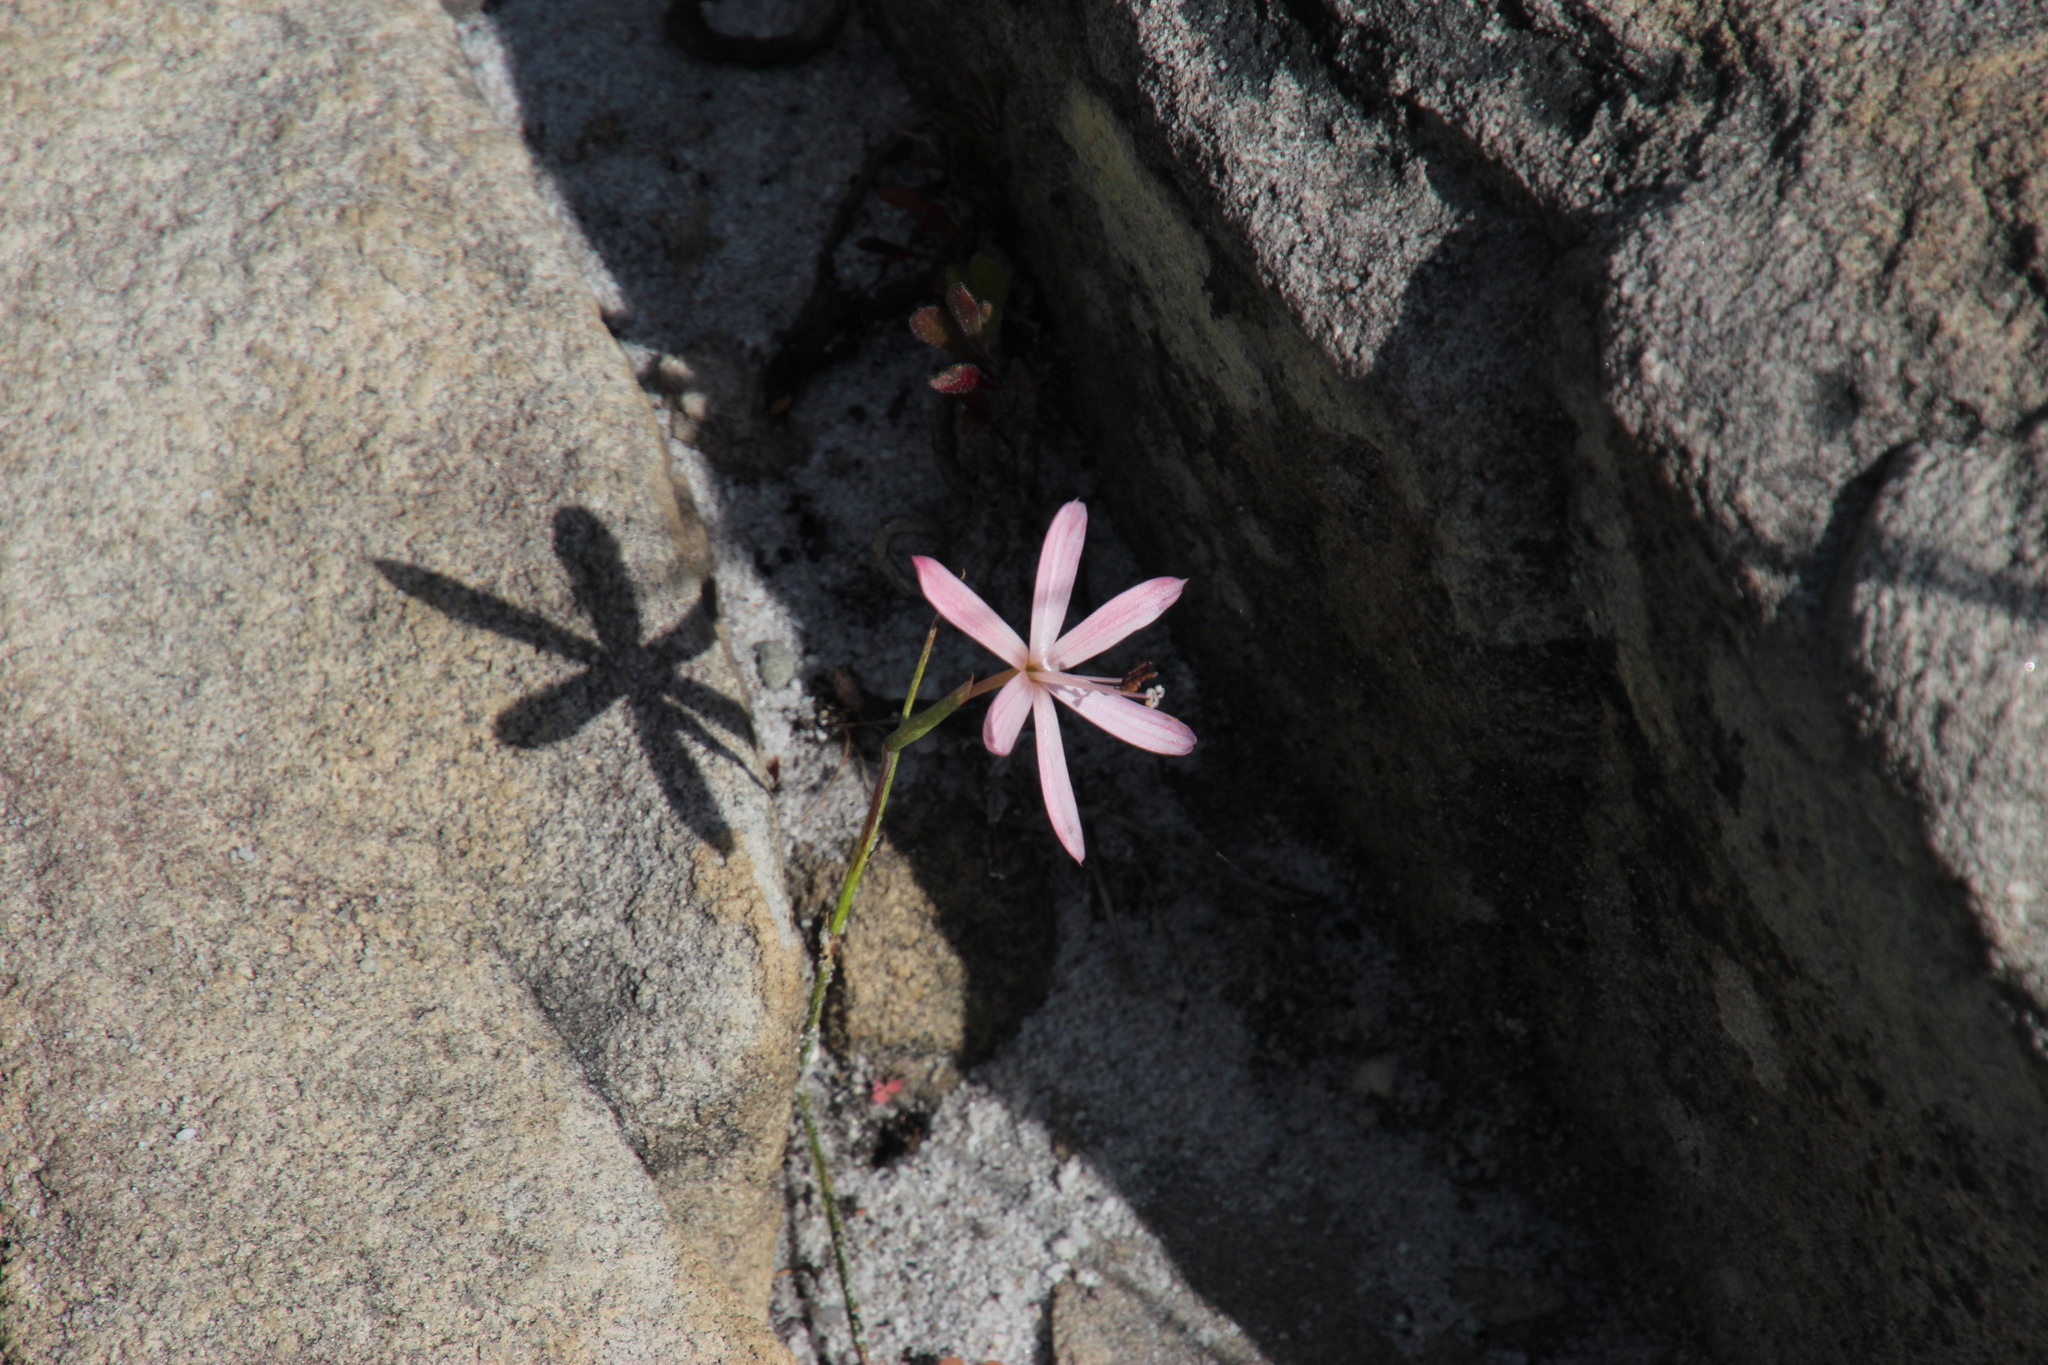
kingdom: Plantae
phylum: Tracheophyta
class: Liliopsida
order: Asparagales
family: Iridaceae
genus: Geissorhiza
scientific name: Geissorhiza bonae-spei
